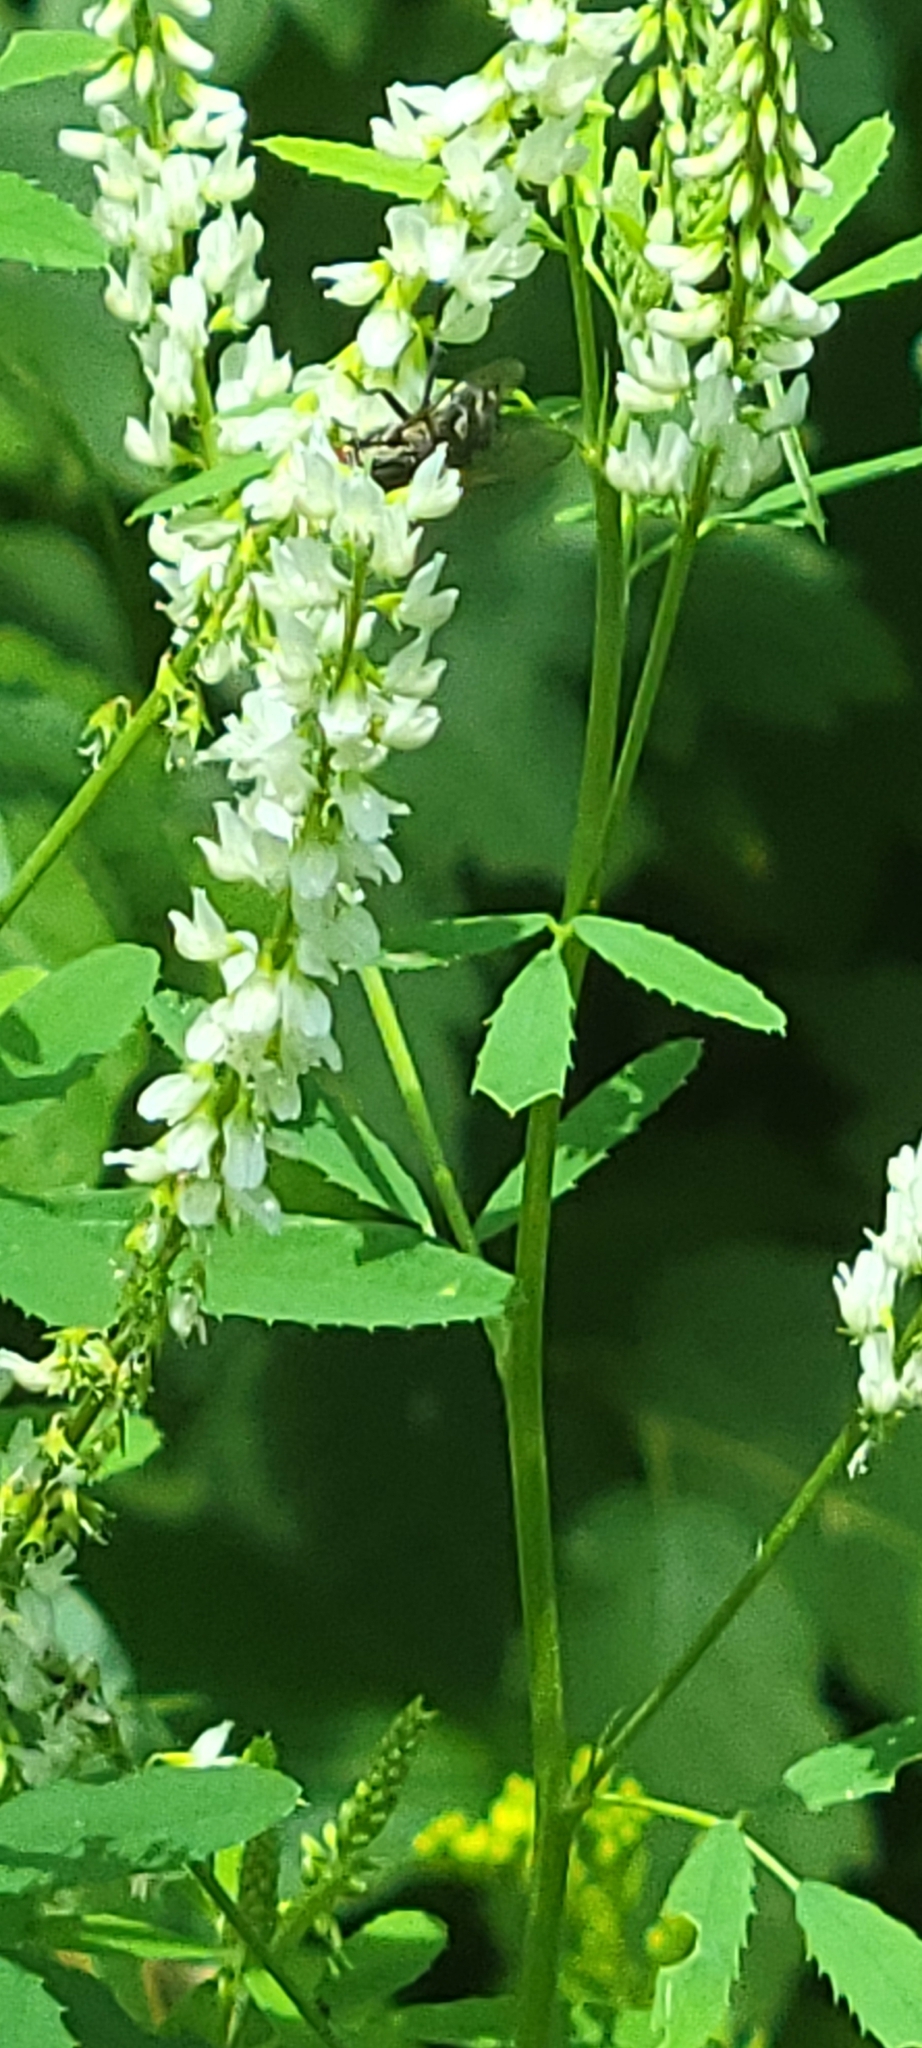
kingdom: Plantae
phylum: Tracheophyta
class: Magnoliopsida
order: Fabales
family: Fabaceae
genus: Melilotus
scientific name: Melilotus albus
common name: White melilot
